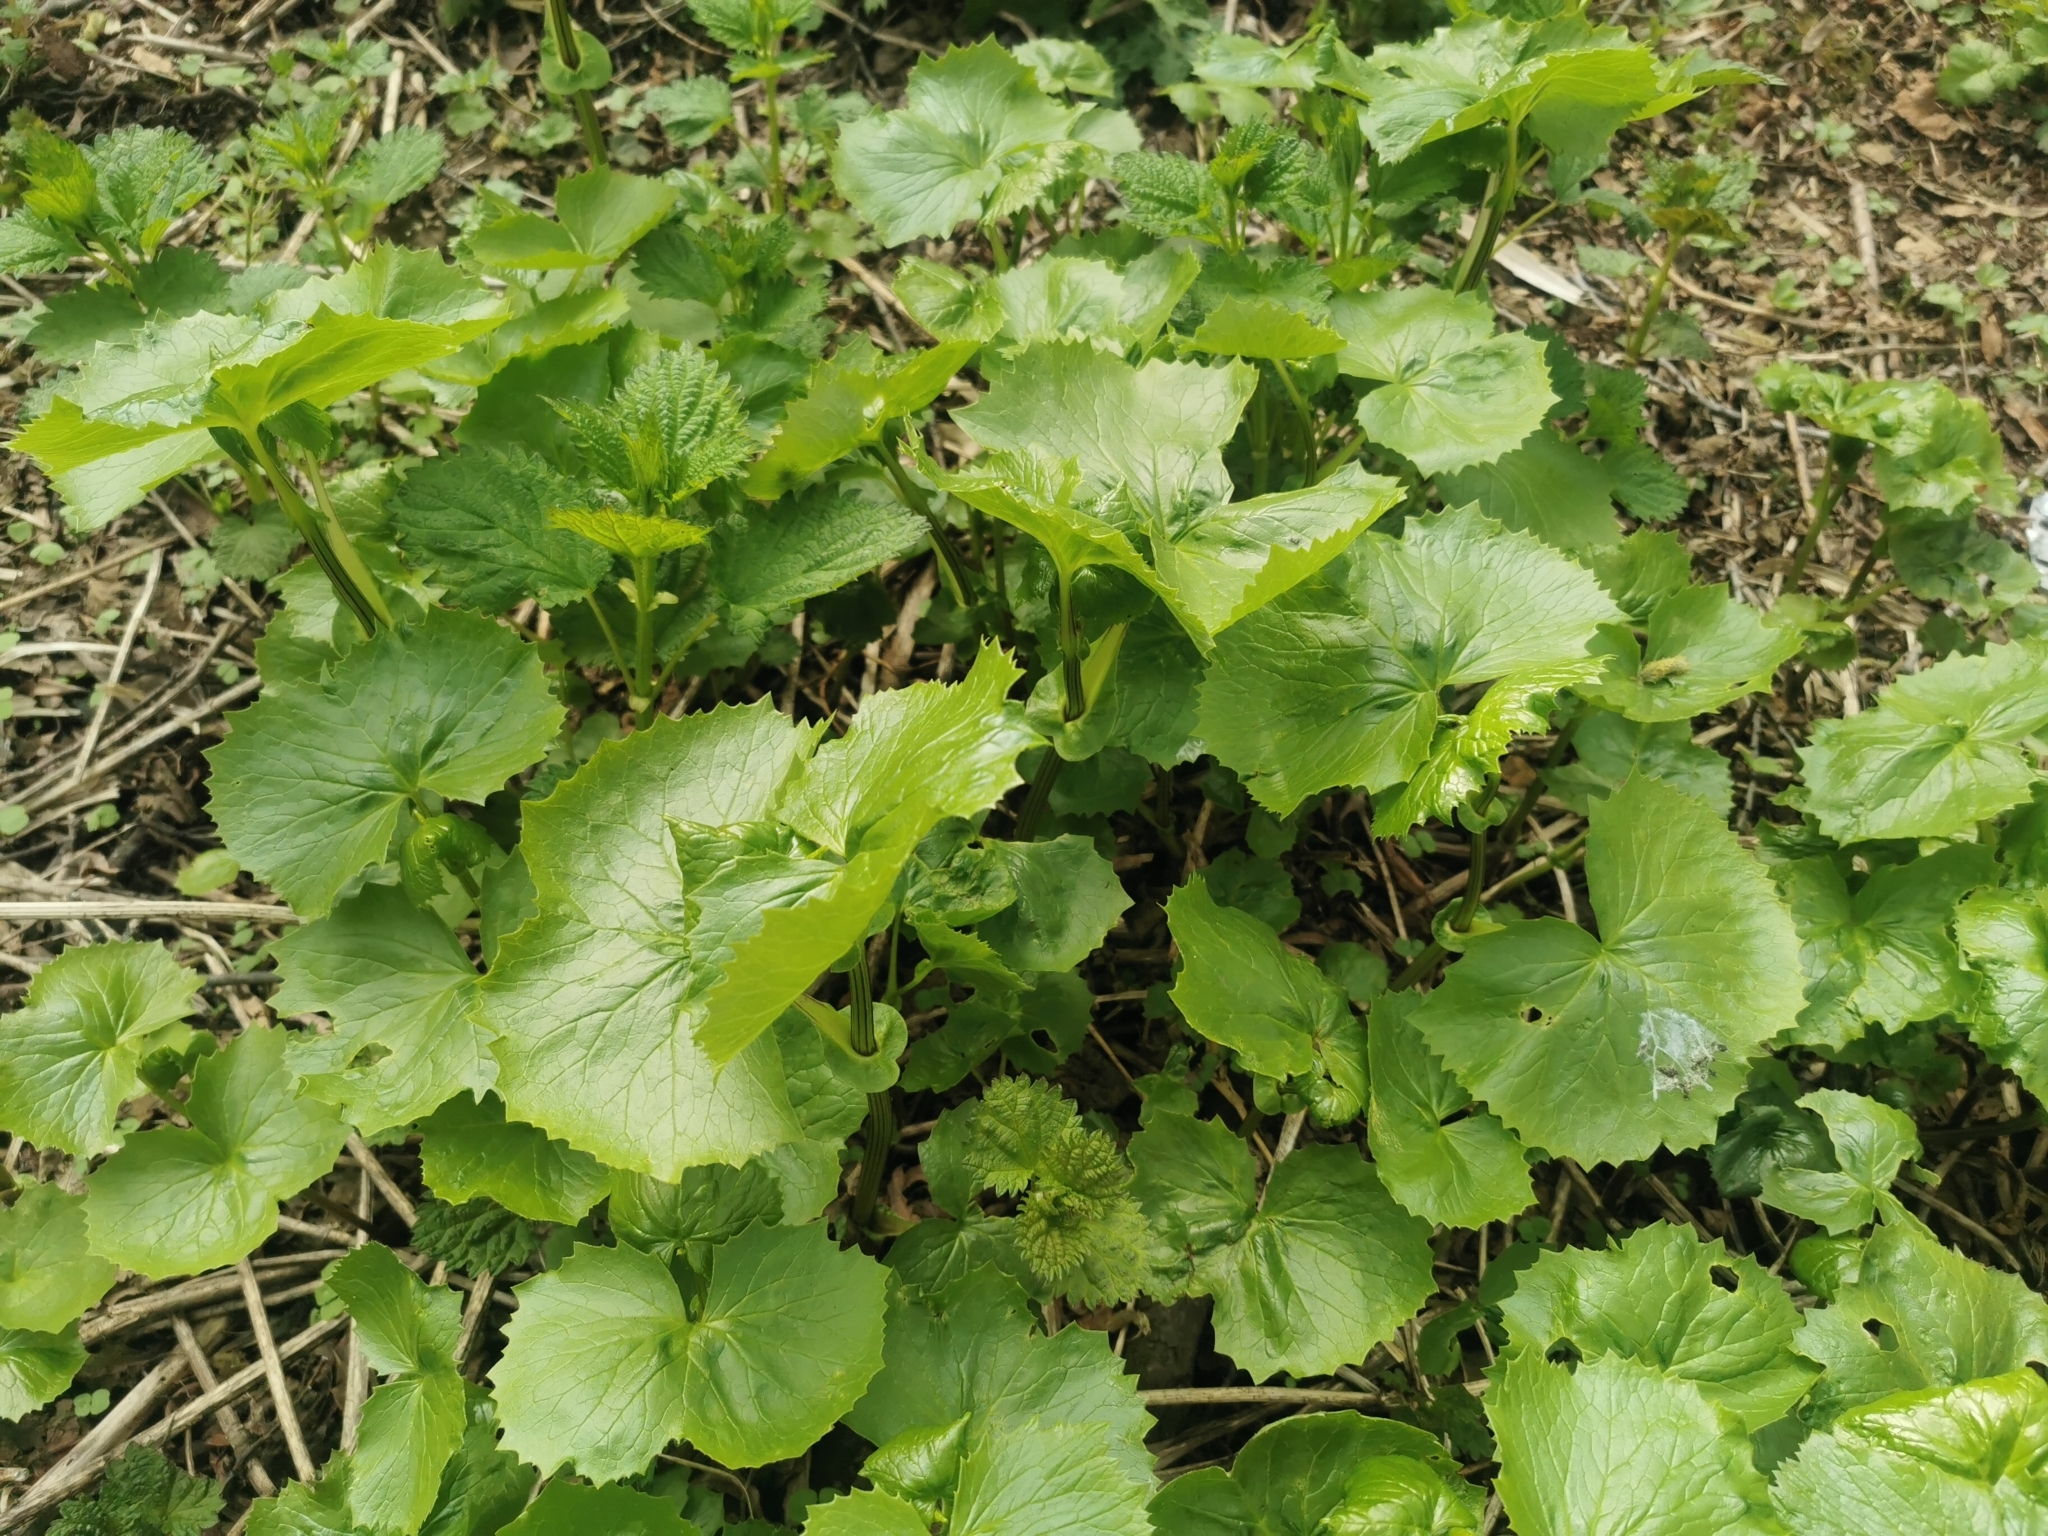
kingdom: Plantae
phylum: Tracheophyta
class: Magnoliopsida
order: Asterales
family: Asteraceae
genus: Parasenecio
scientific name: Parasenecio kamtschaticus
